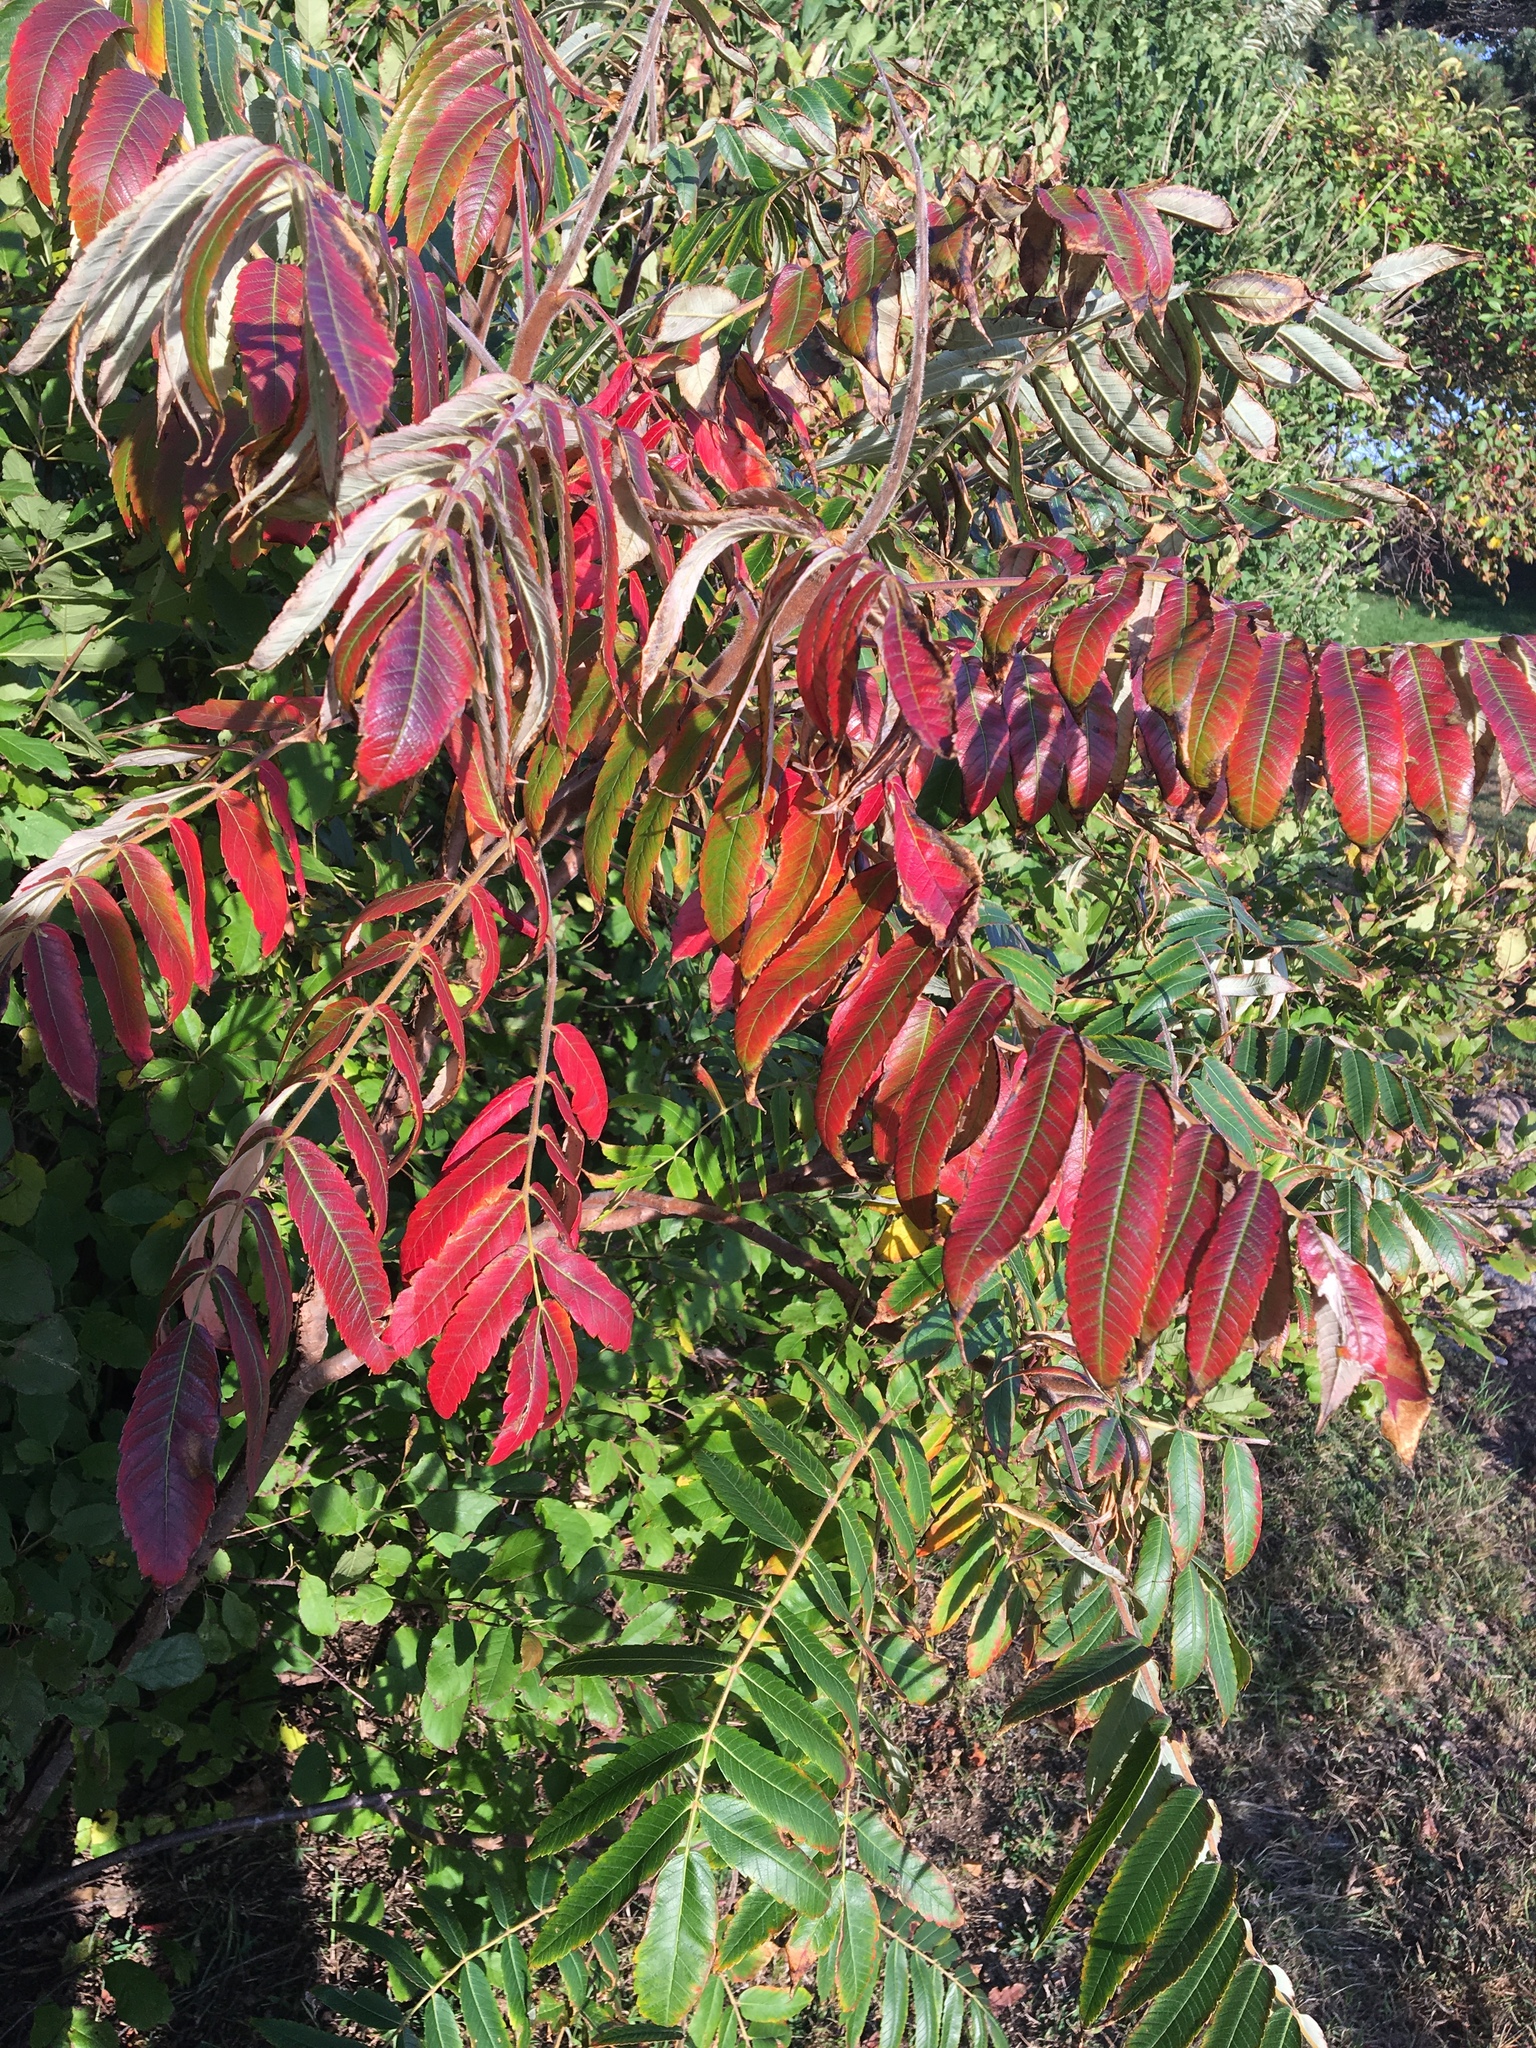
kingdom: Plantae
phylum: Tracheophyta
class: Magnoliopsida
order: Sapindales
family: Anacardiaceae
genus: Rhus
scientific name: Rhus typhina
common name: Staghorn sumac
